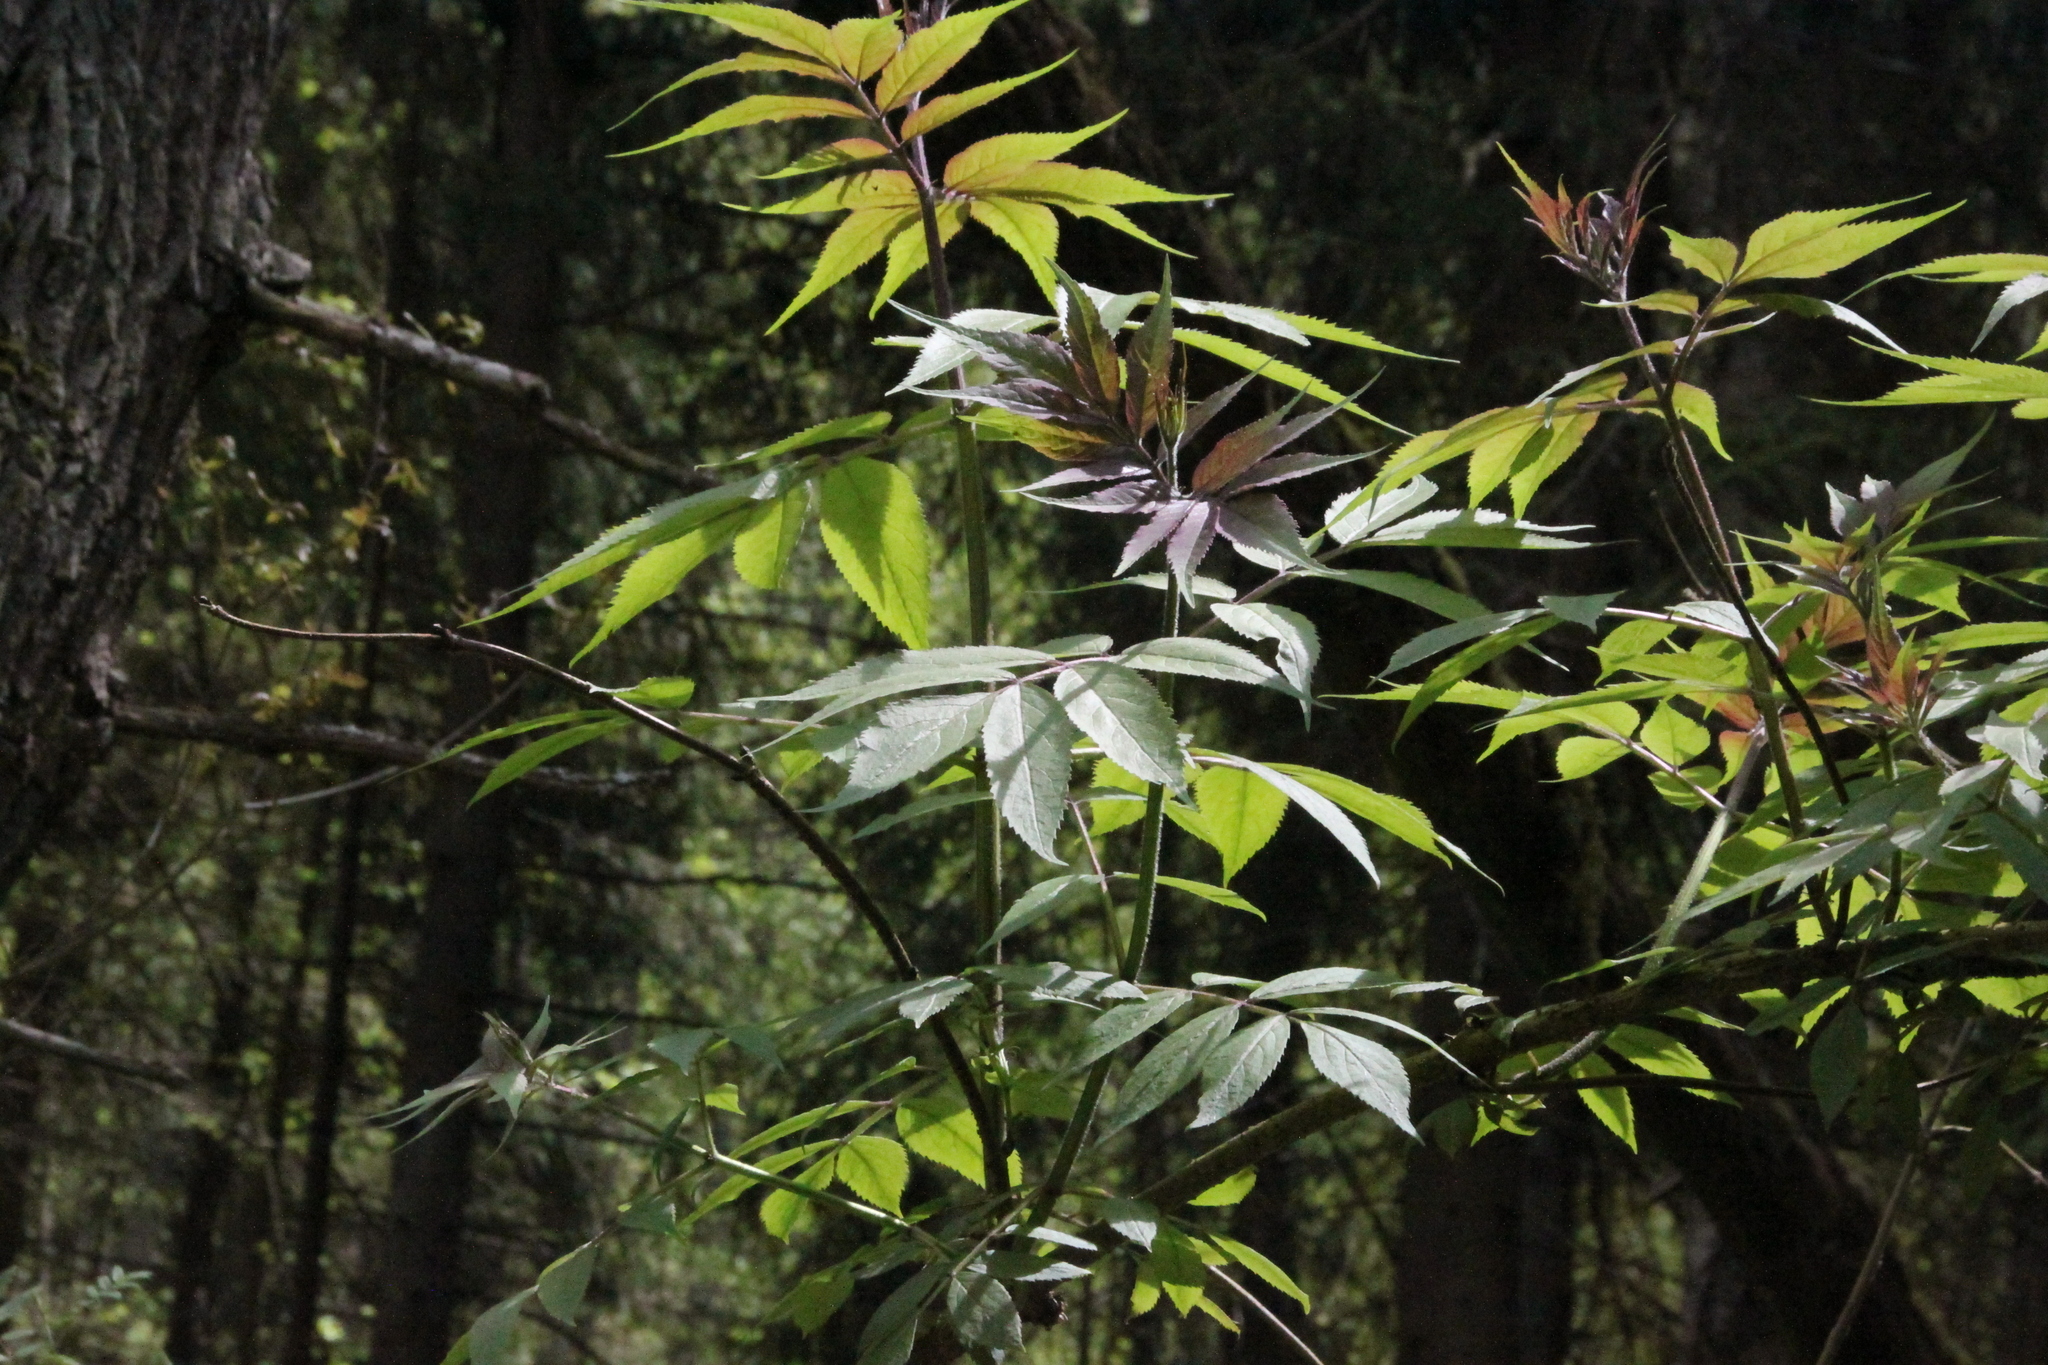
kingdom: Plantae
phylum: Tracheophyta
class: Magnoliopsida
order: Dipsacales
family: Viburnaceae
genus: Sambucus
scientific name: Sambucus racemosa
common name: Red-berried elder
